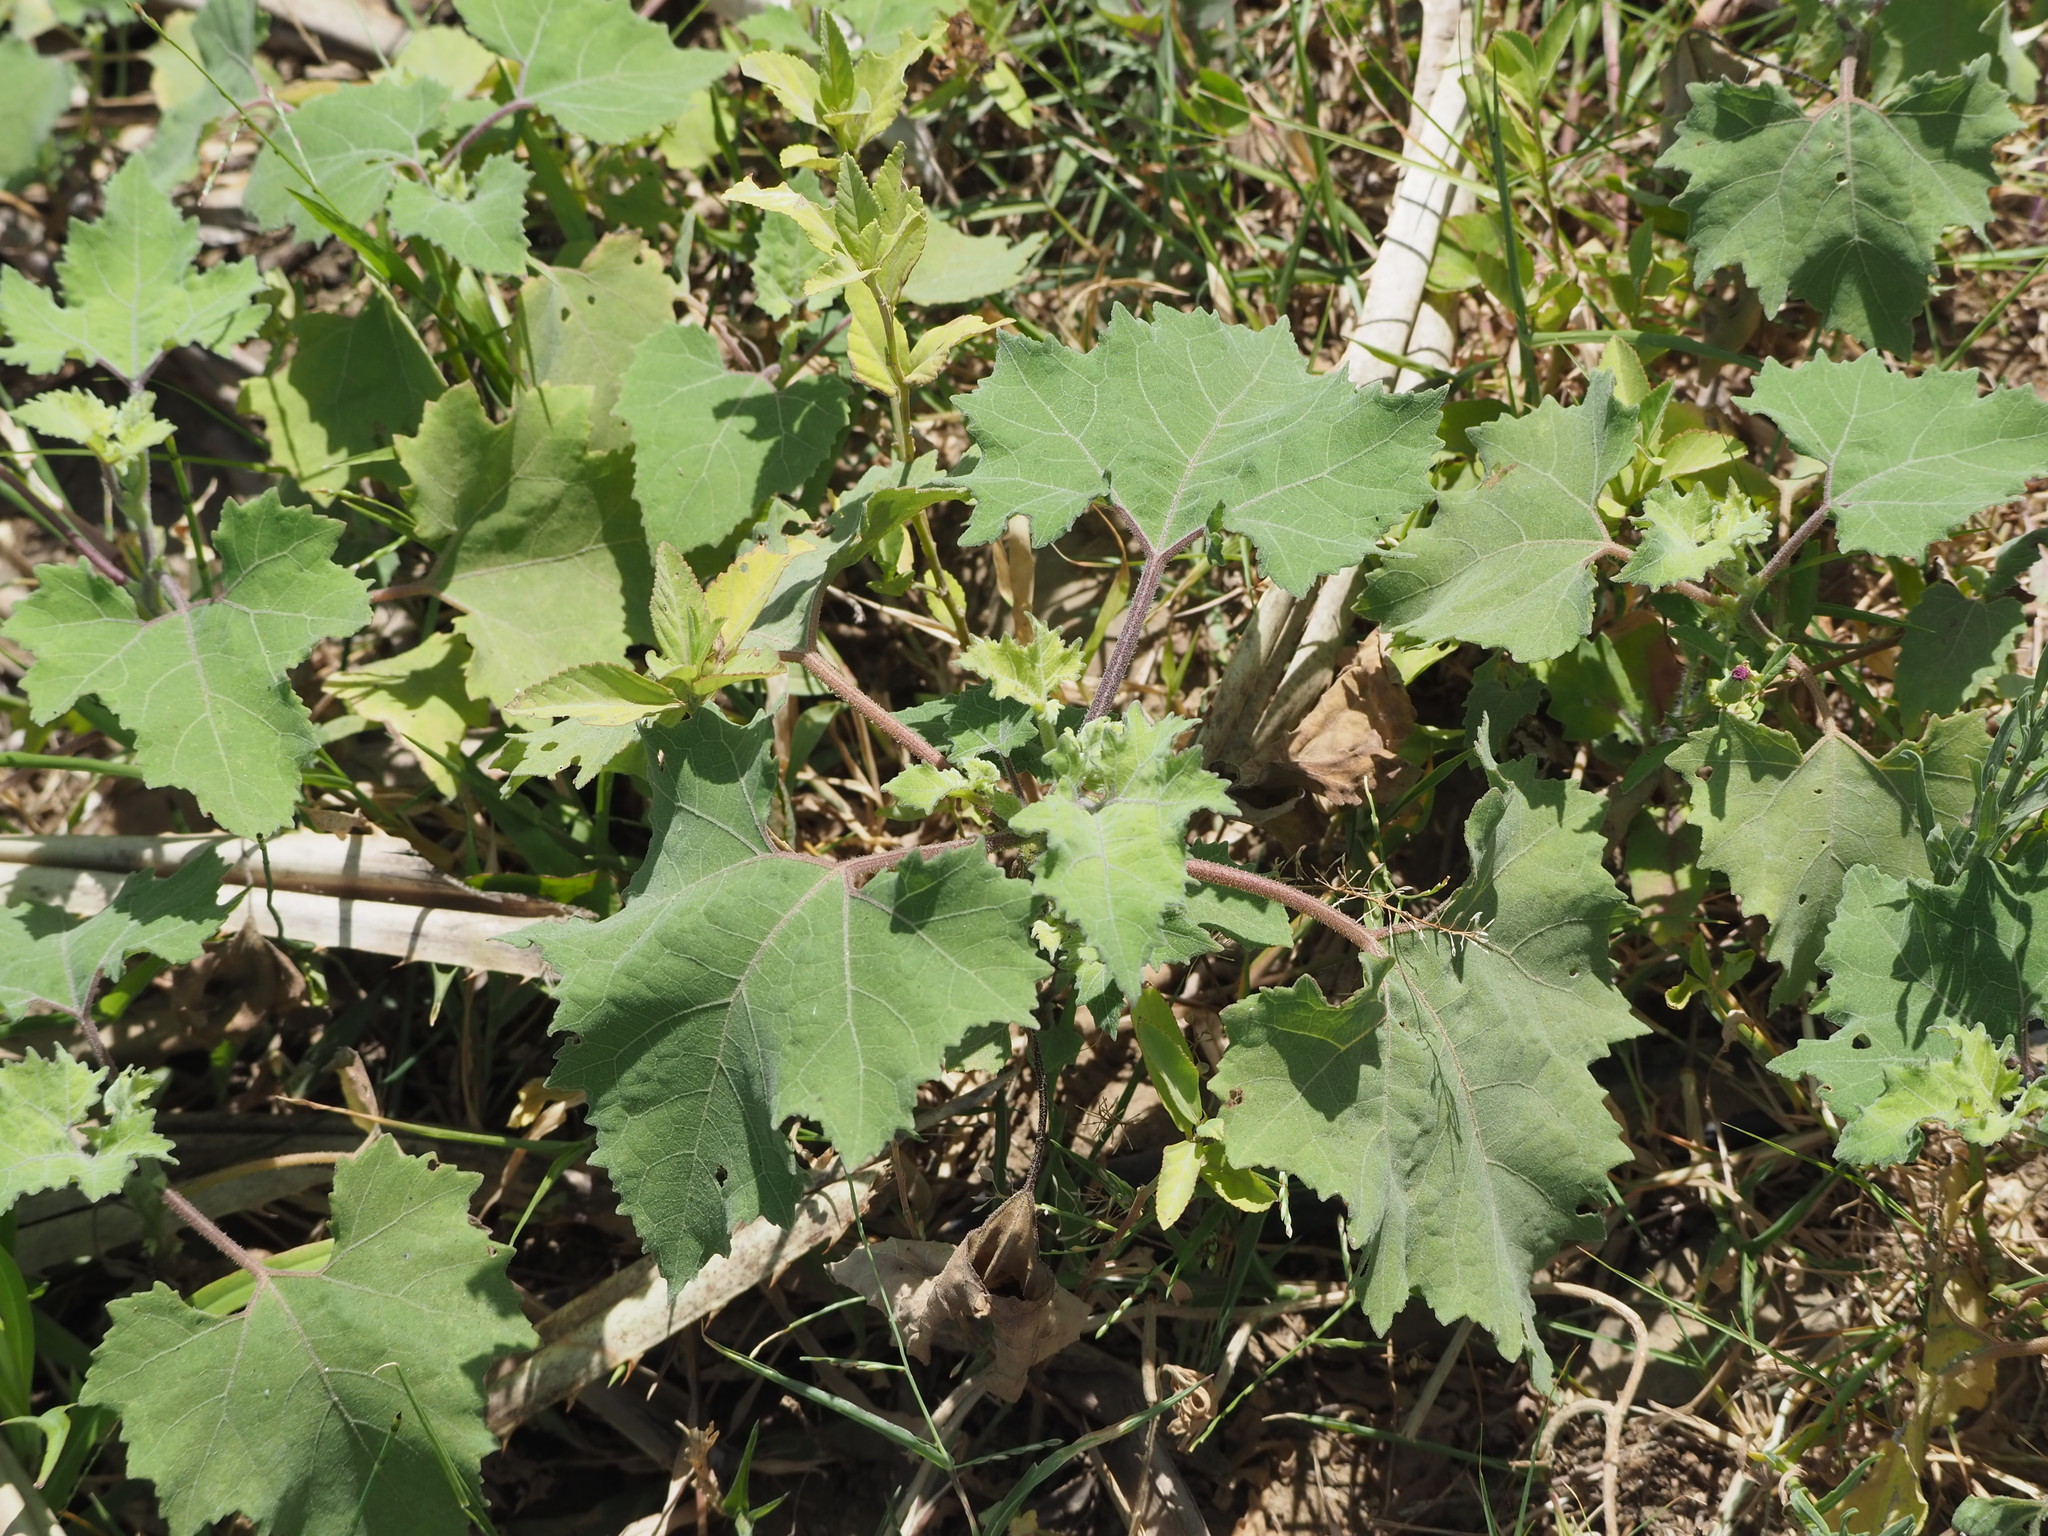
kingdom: Plantae
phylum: Tracheophyta
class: Magnoliopsida
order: Asterales
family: Asteraceae
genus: Xanthium
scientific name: Xanthium strumarium
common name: Rough cocklebur
